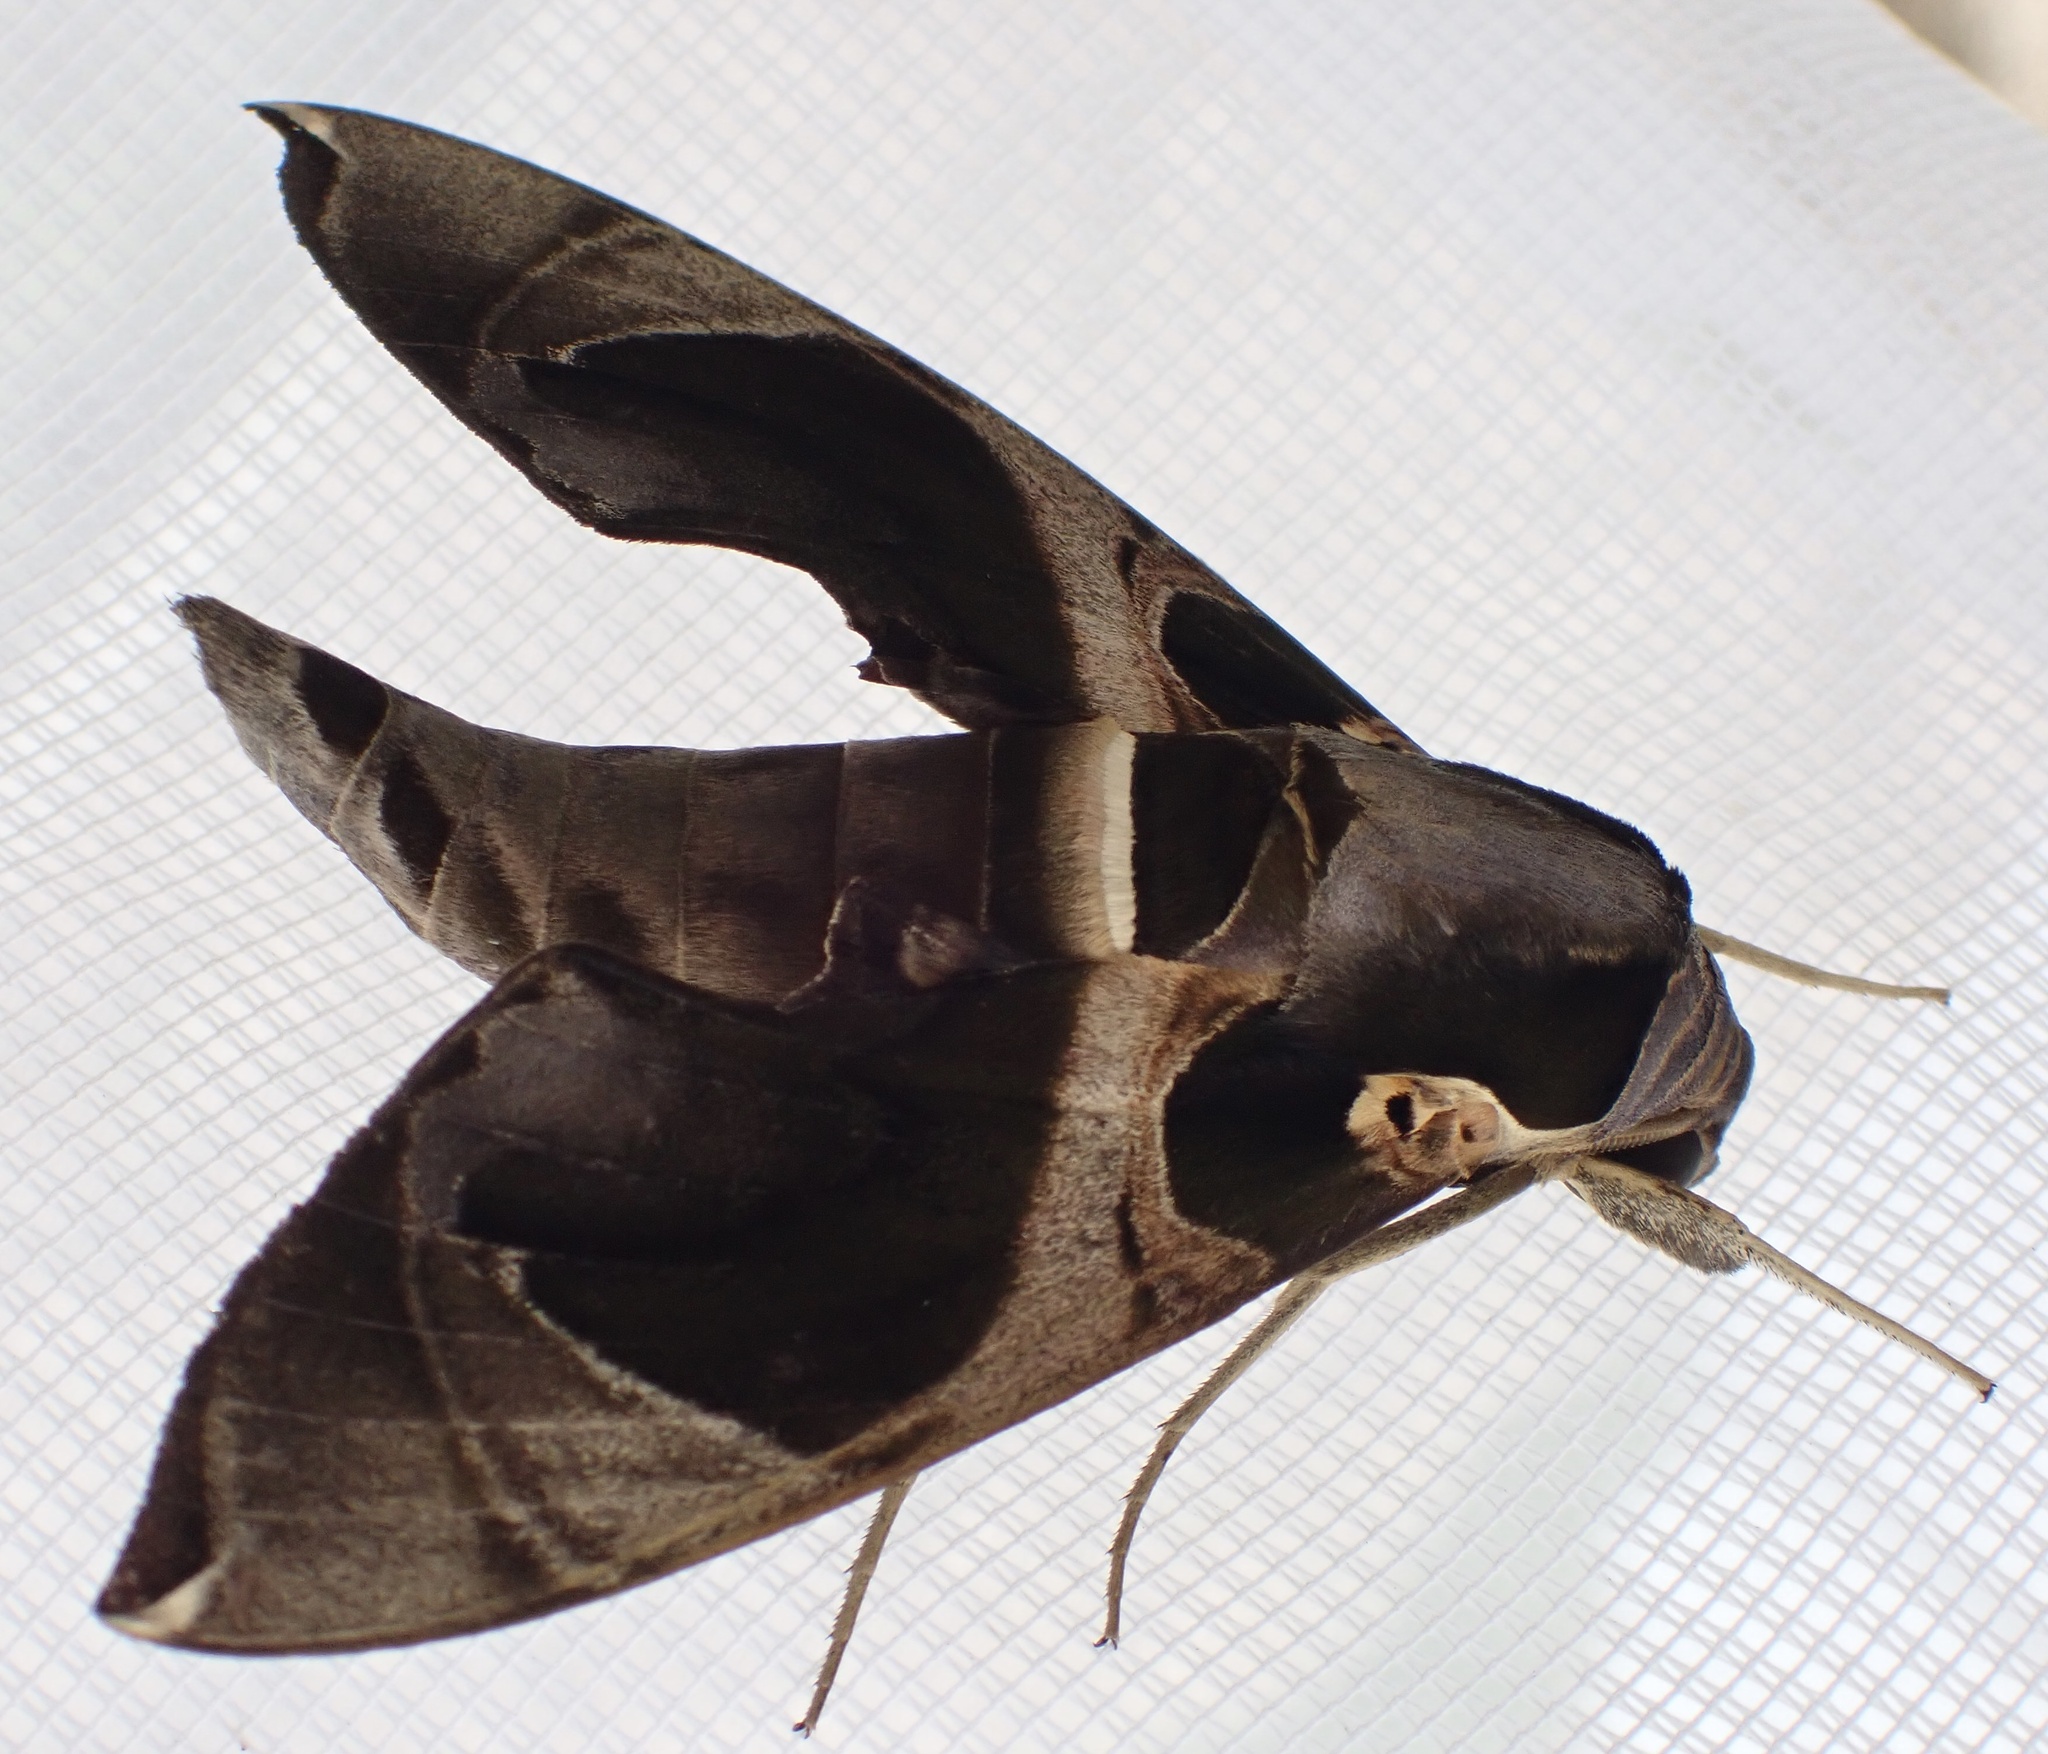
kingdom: Animalia
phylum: Arthropoda
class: Insecta
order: Lepidoptera
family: Sphingidae
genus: Daphnis
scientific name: Daphnis moorei
